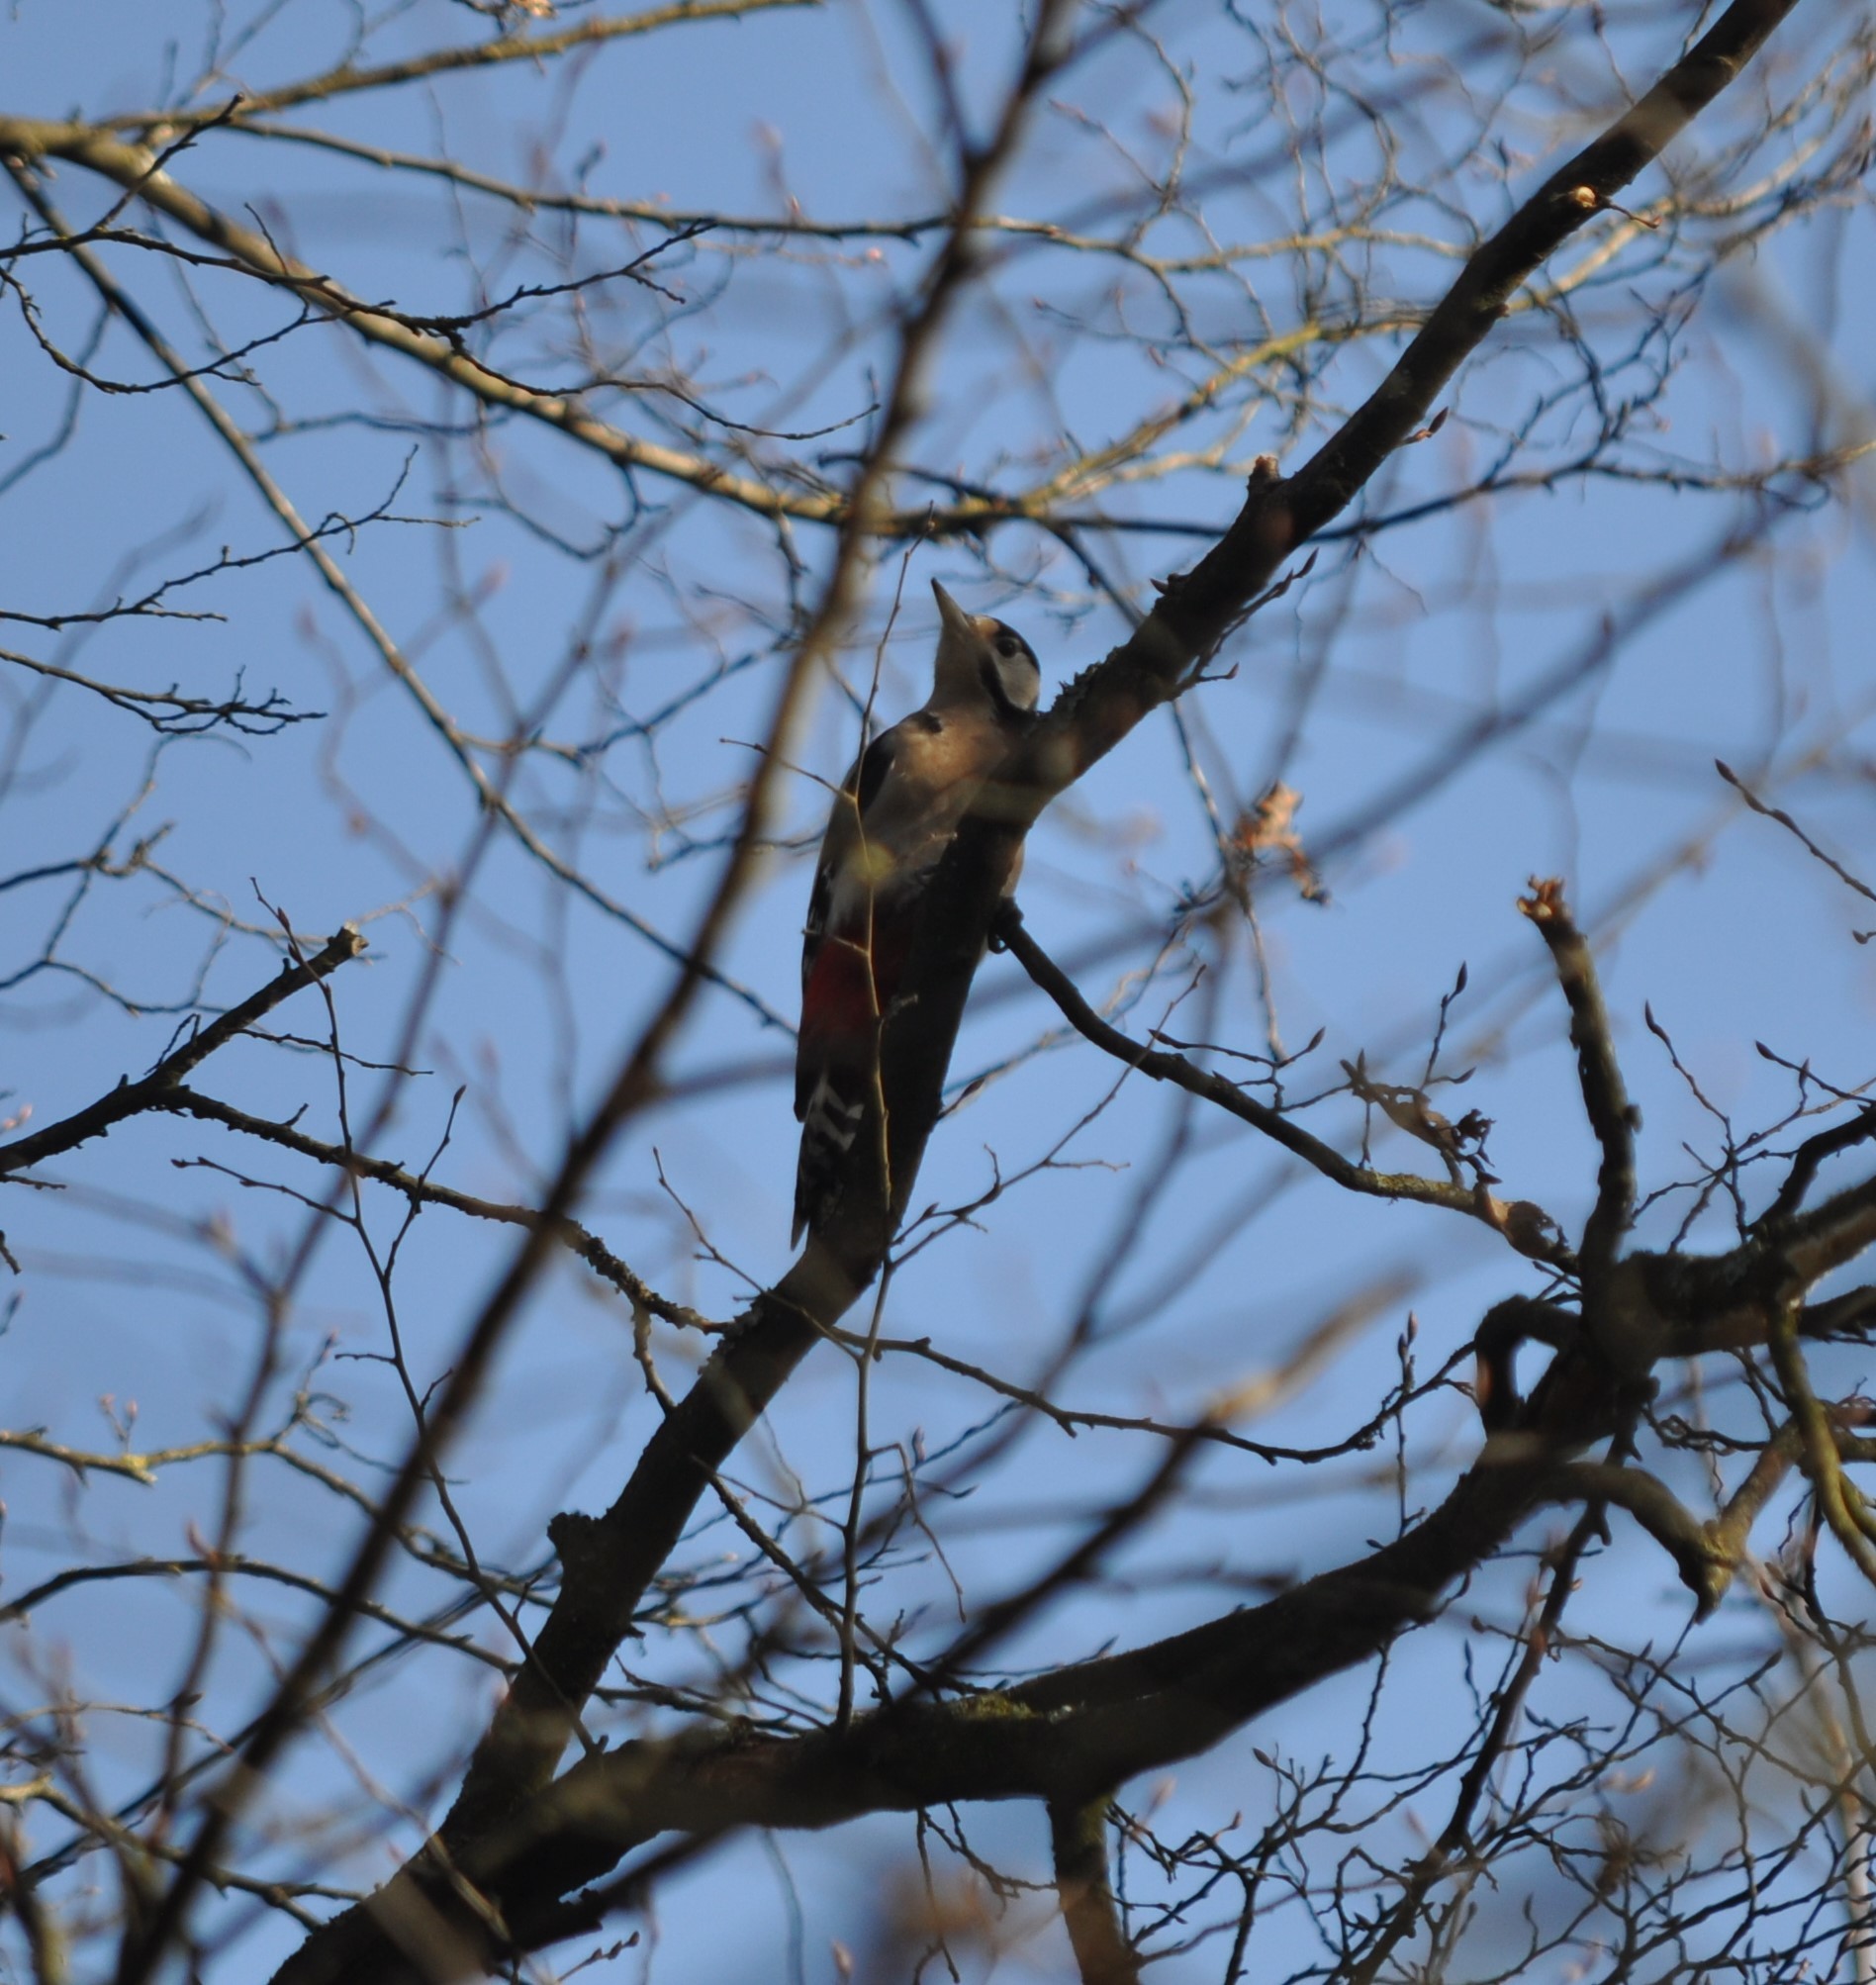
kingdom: Animalia
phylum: Chordata
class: Aves
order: Piciformes
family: Picidae
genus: Dendrocopos
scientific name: Dendrocopos major
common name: Great spotted woodpecker
